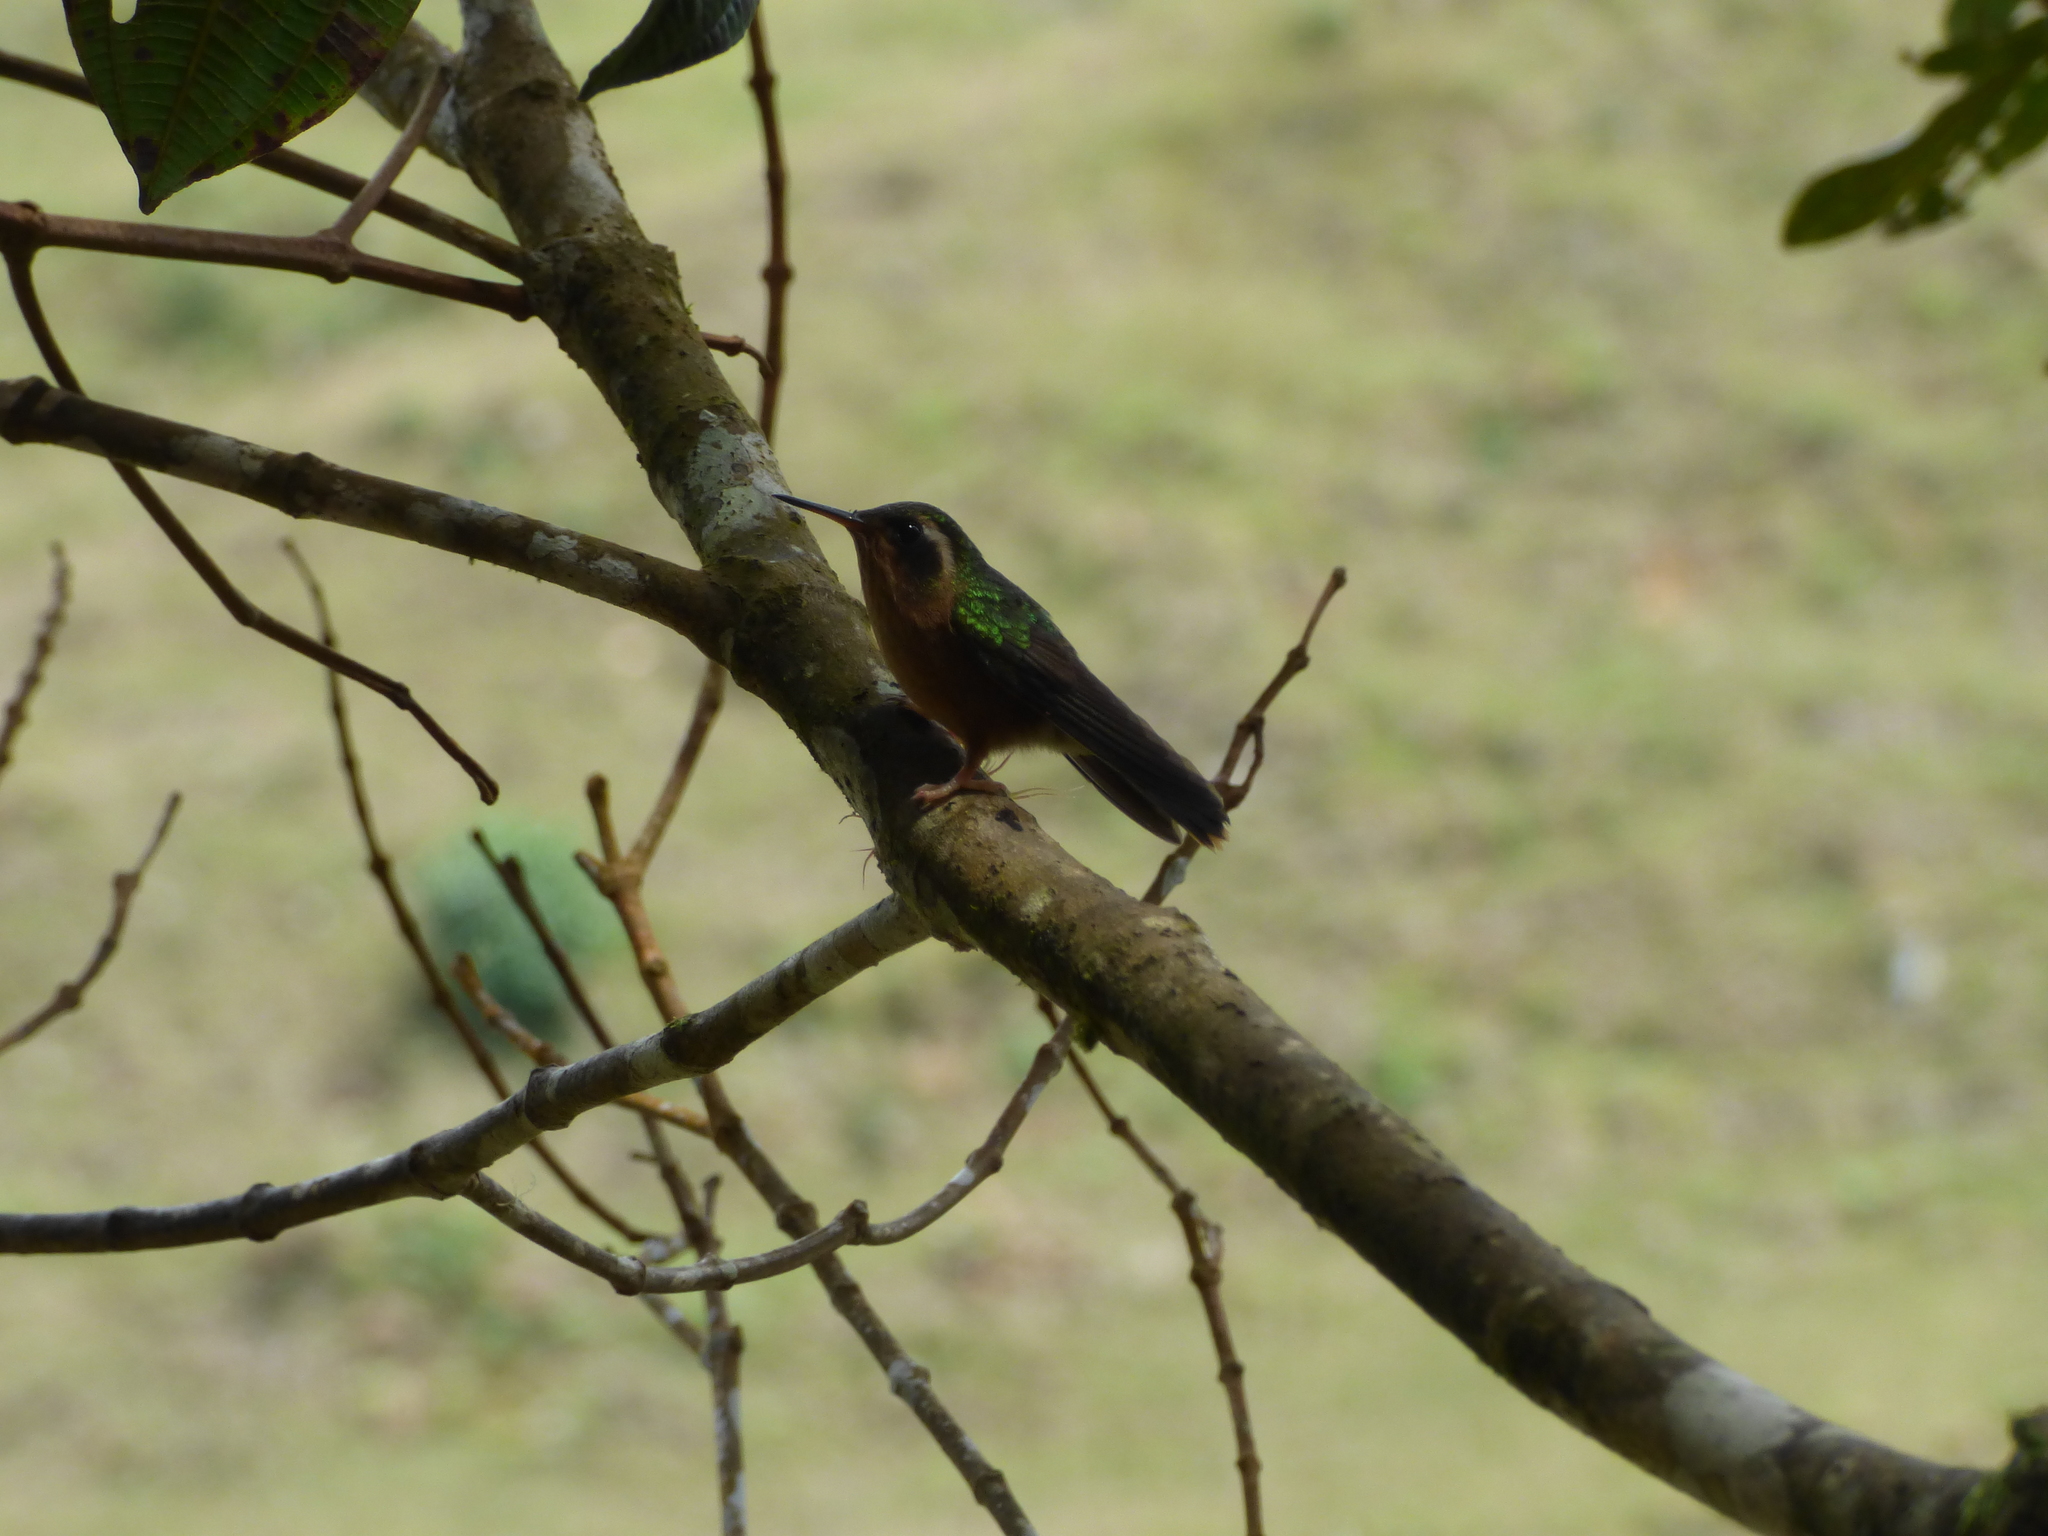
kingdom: Animalia
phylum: Chordata
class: Aves
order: Apodiformes
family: Trochilidae
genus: Adelomyia
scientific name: Adelomyia melanogenys
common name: Speckled hummingbird
